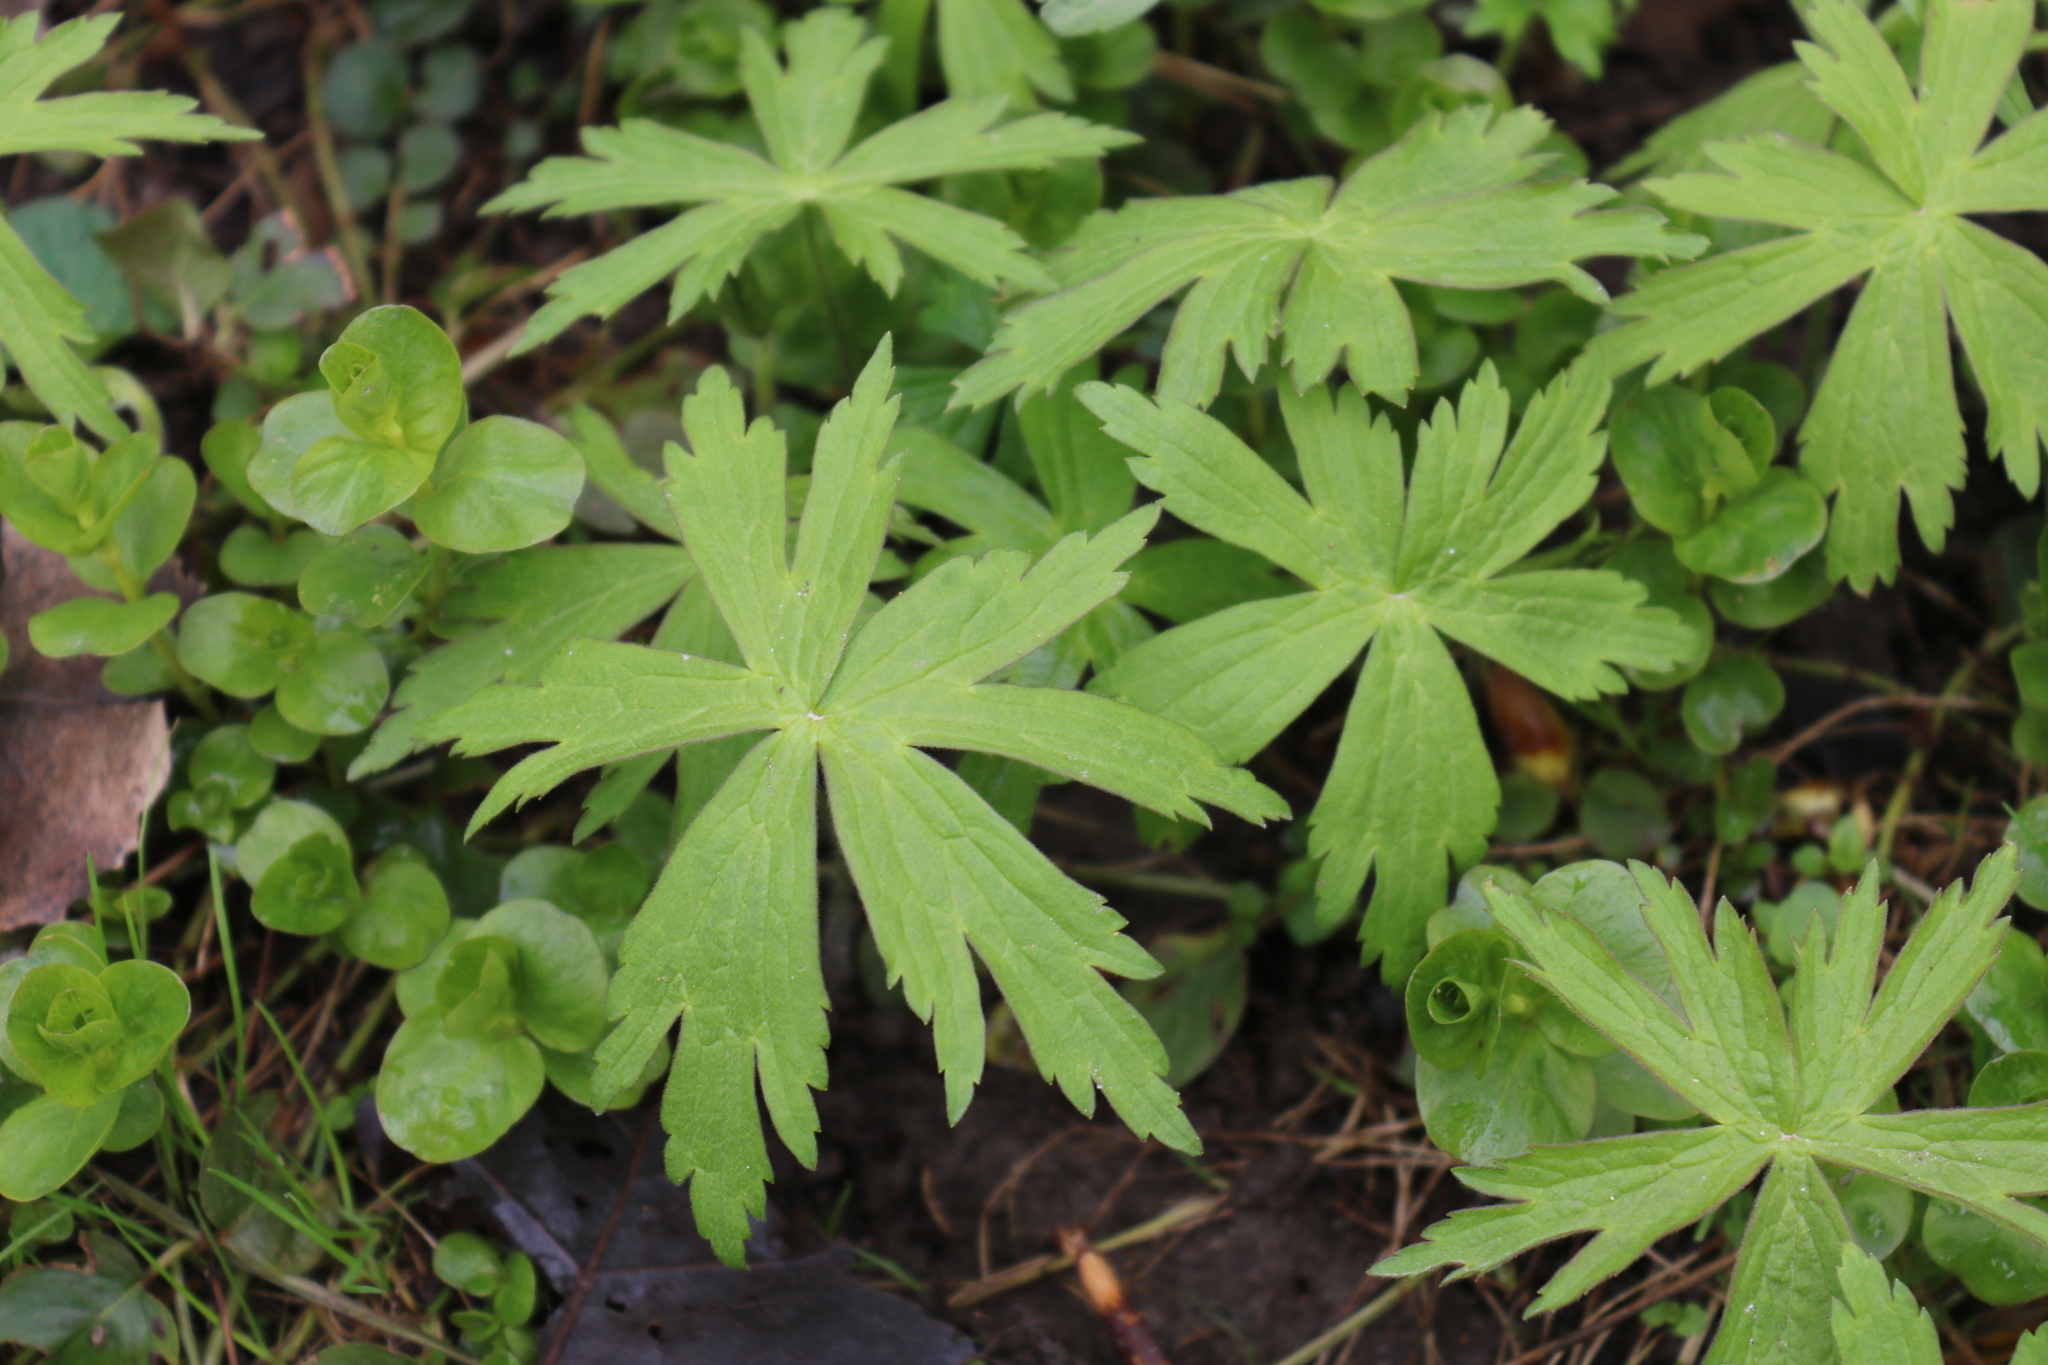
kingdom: Plantae
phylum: Tracheophyta
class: Magnoliopsida
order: Ranunculales
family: Ranunculaceae
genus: Anemonastrum
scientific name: Anemonastrum canadense
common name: Canada anemone
